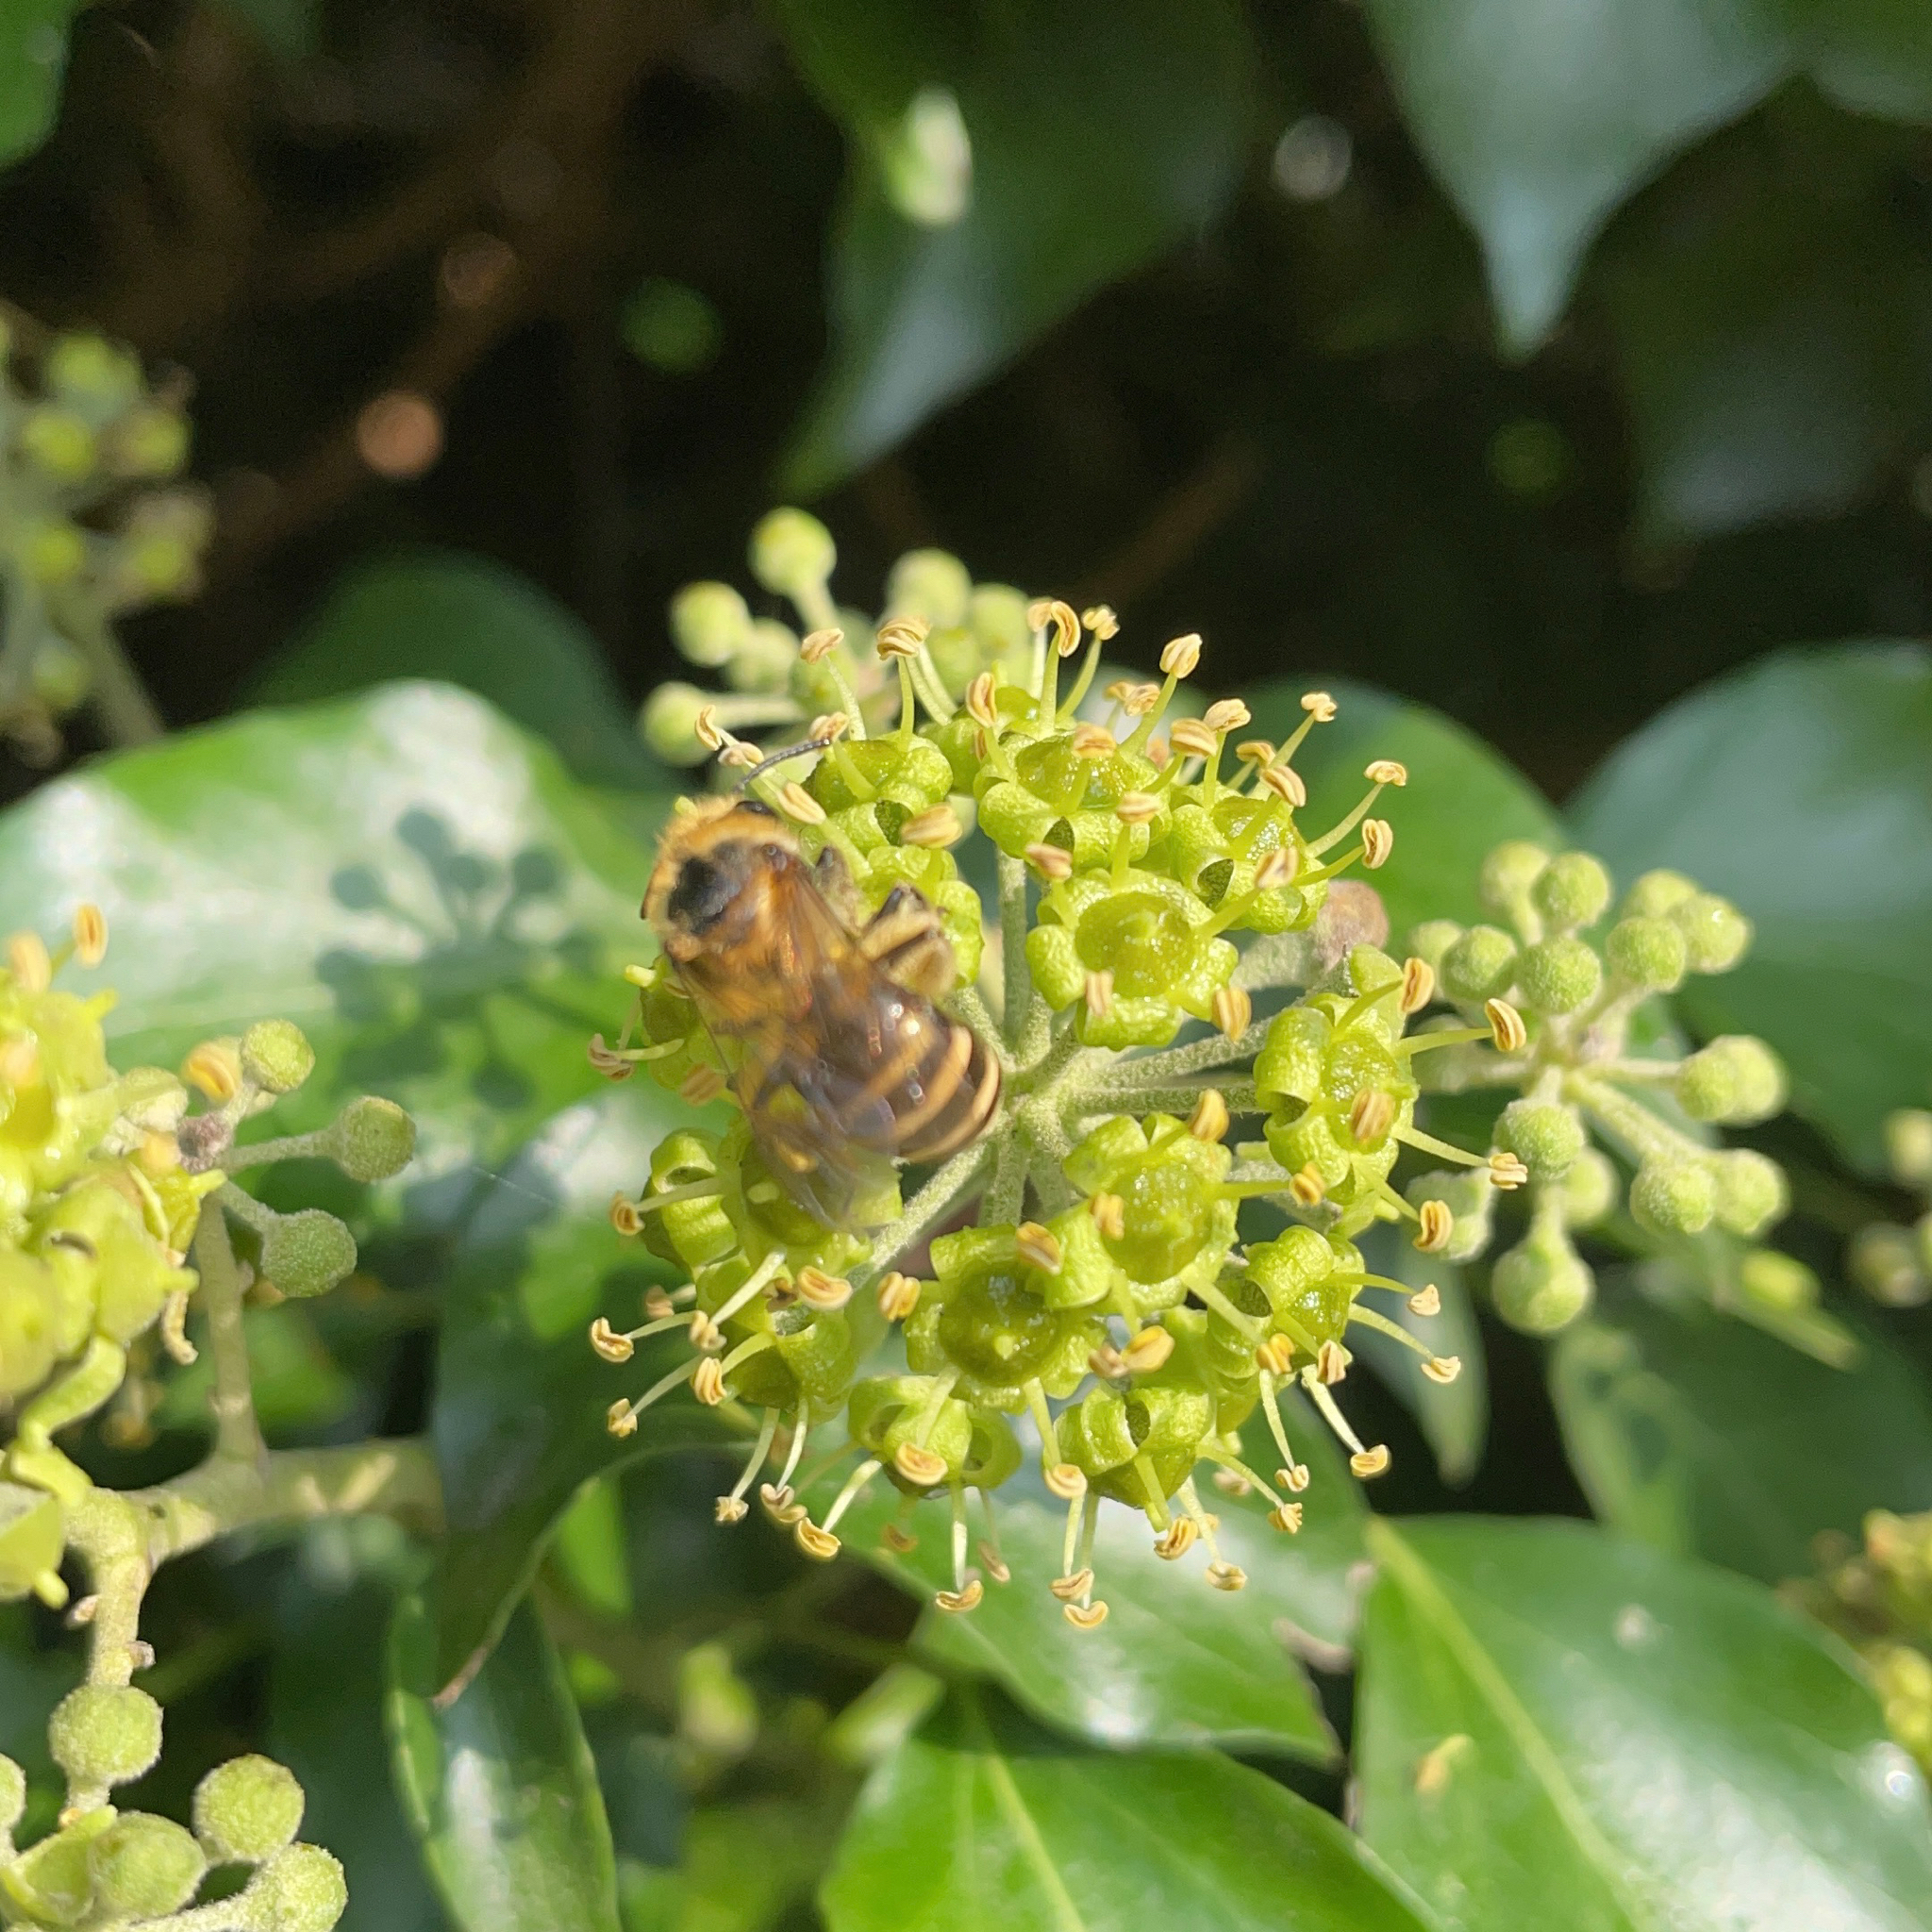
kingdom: Animalia
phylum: Arthropoda
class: Insecta
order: Hymenoptera
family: Colletidae
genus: Colletes
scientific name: Colletes hederae
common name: Ivy bee
